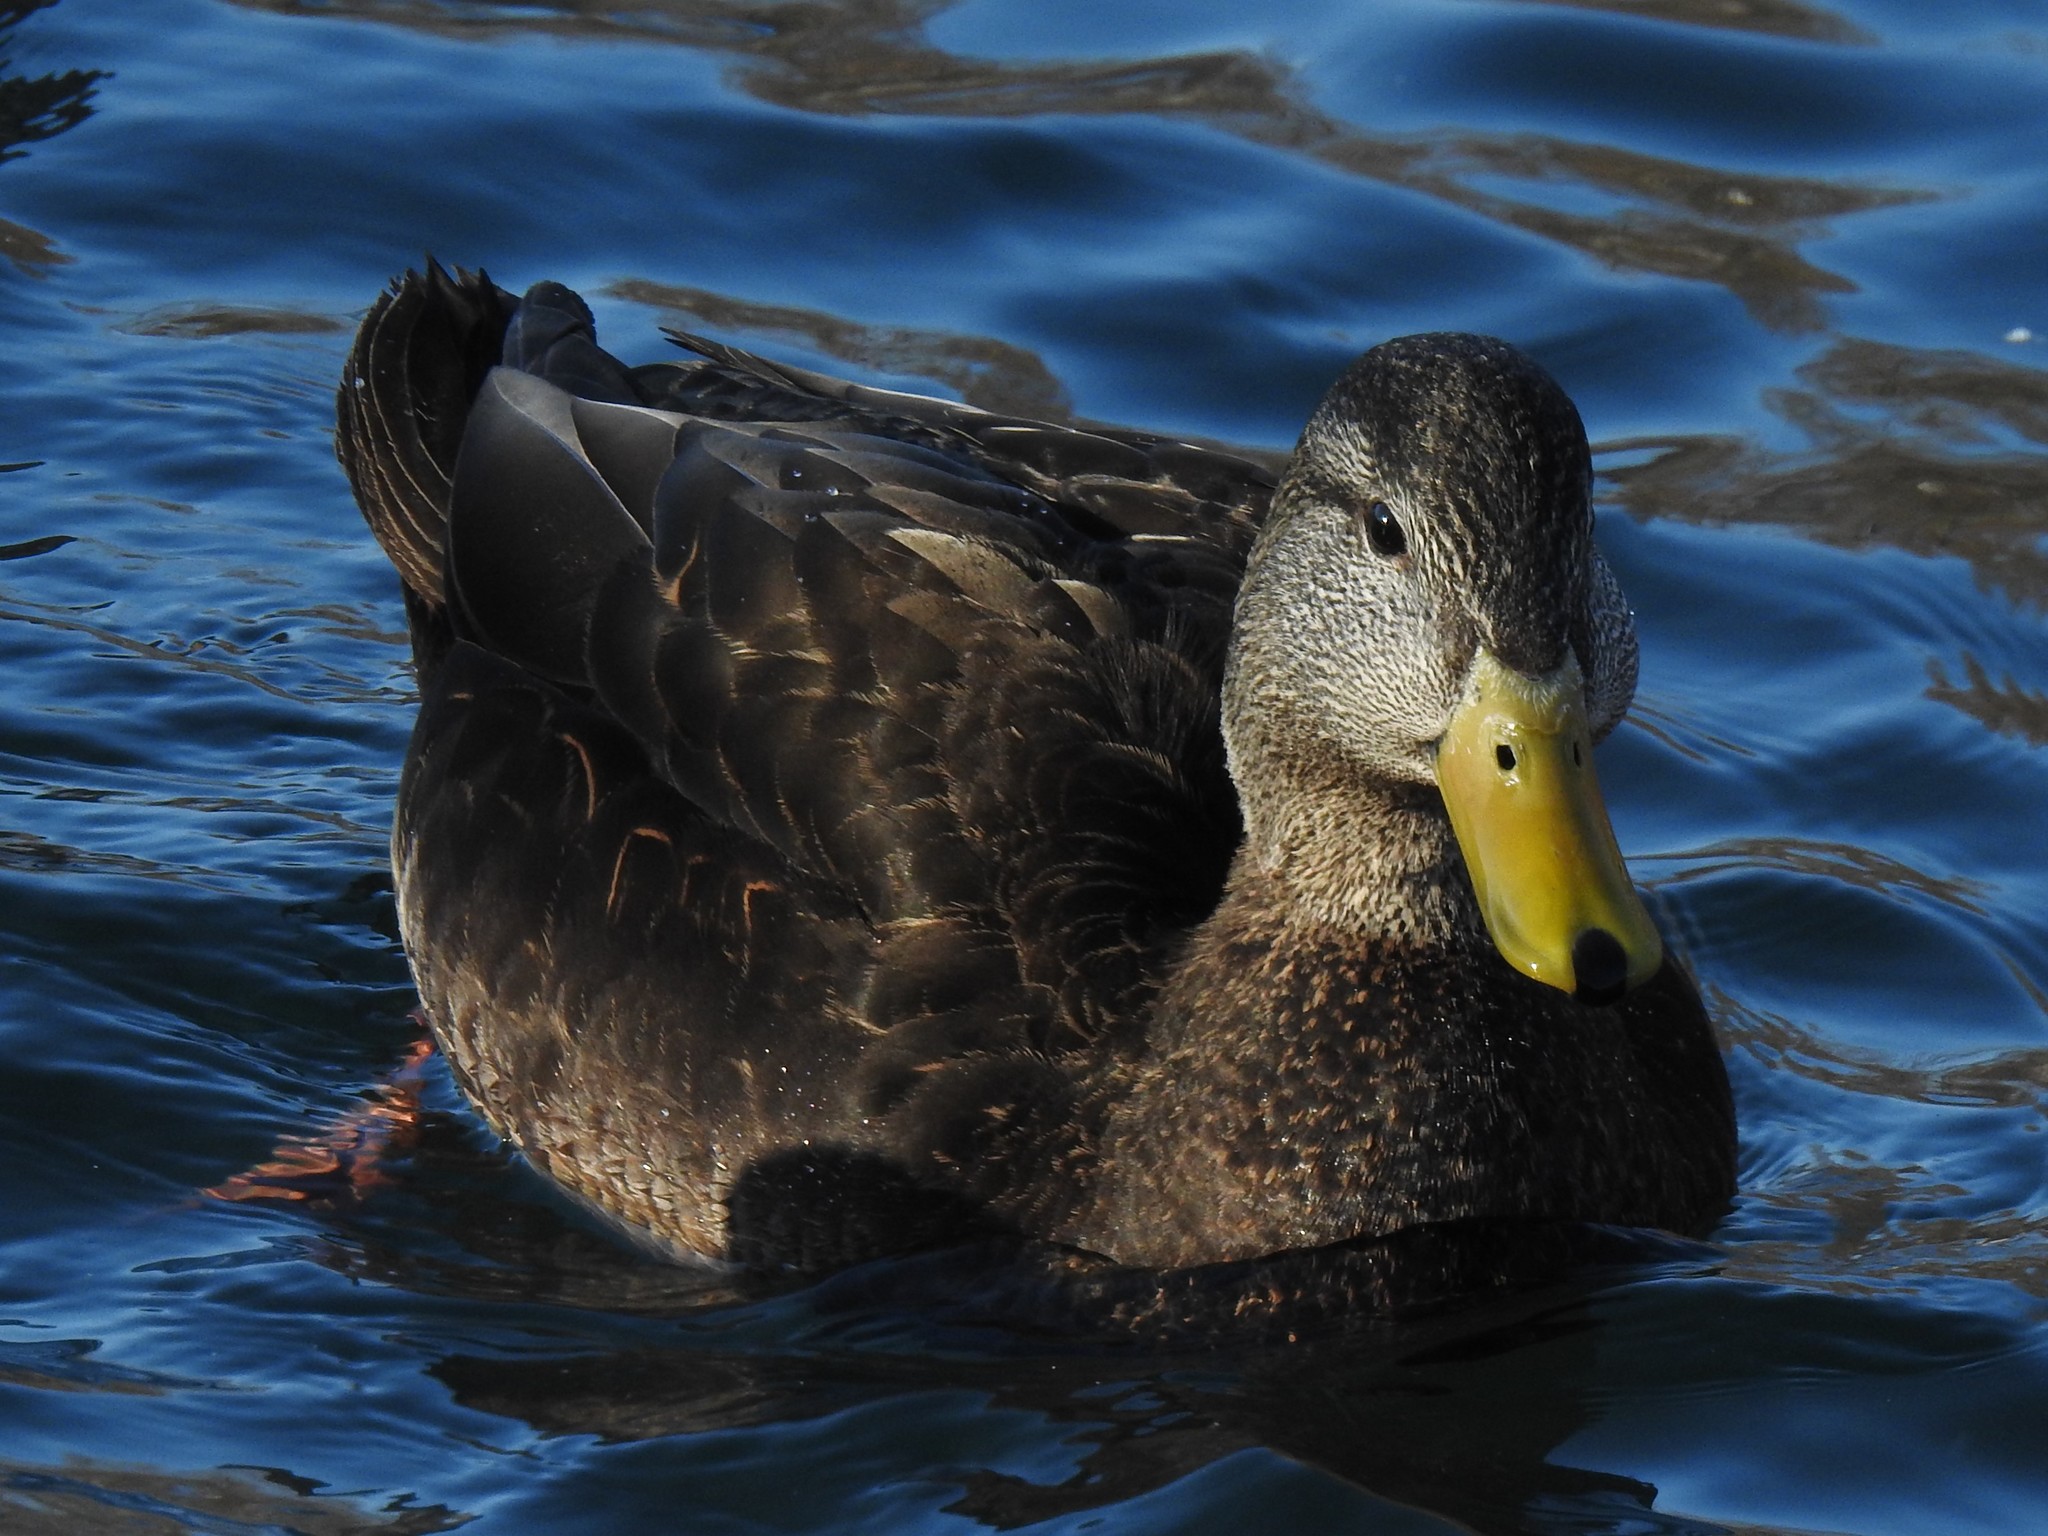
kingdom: Animalia
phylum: Chordata
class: Aves
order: Anseriformes
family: Anatidae
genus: Anas
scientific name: Anas rubripes
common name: American black duck
